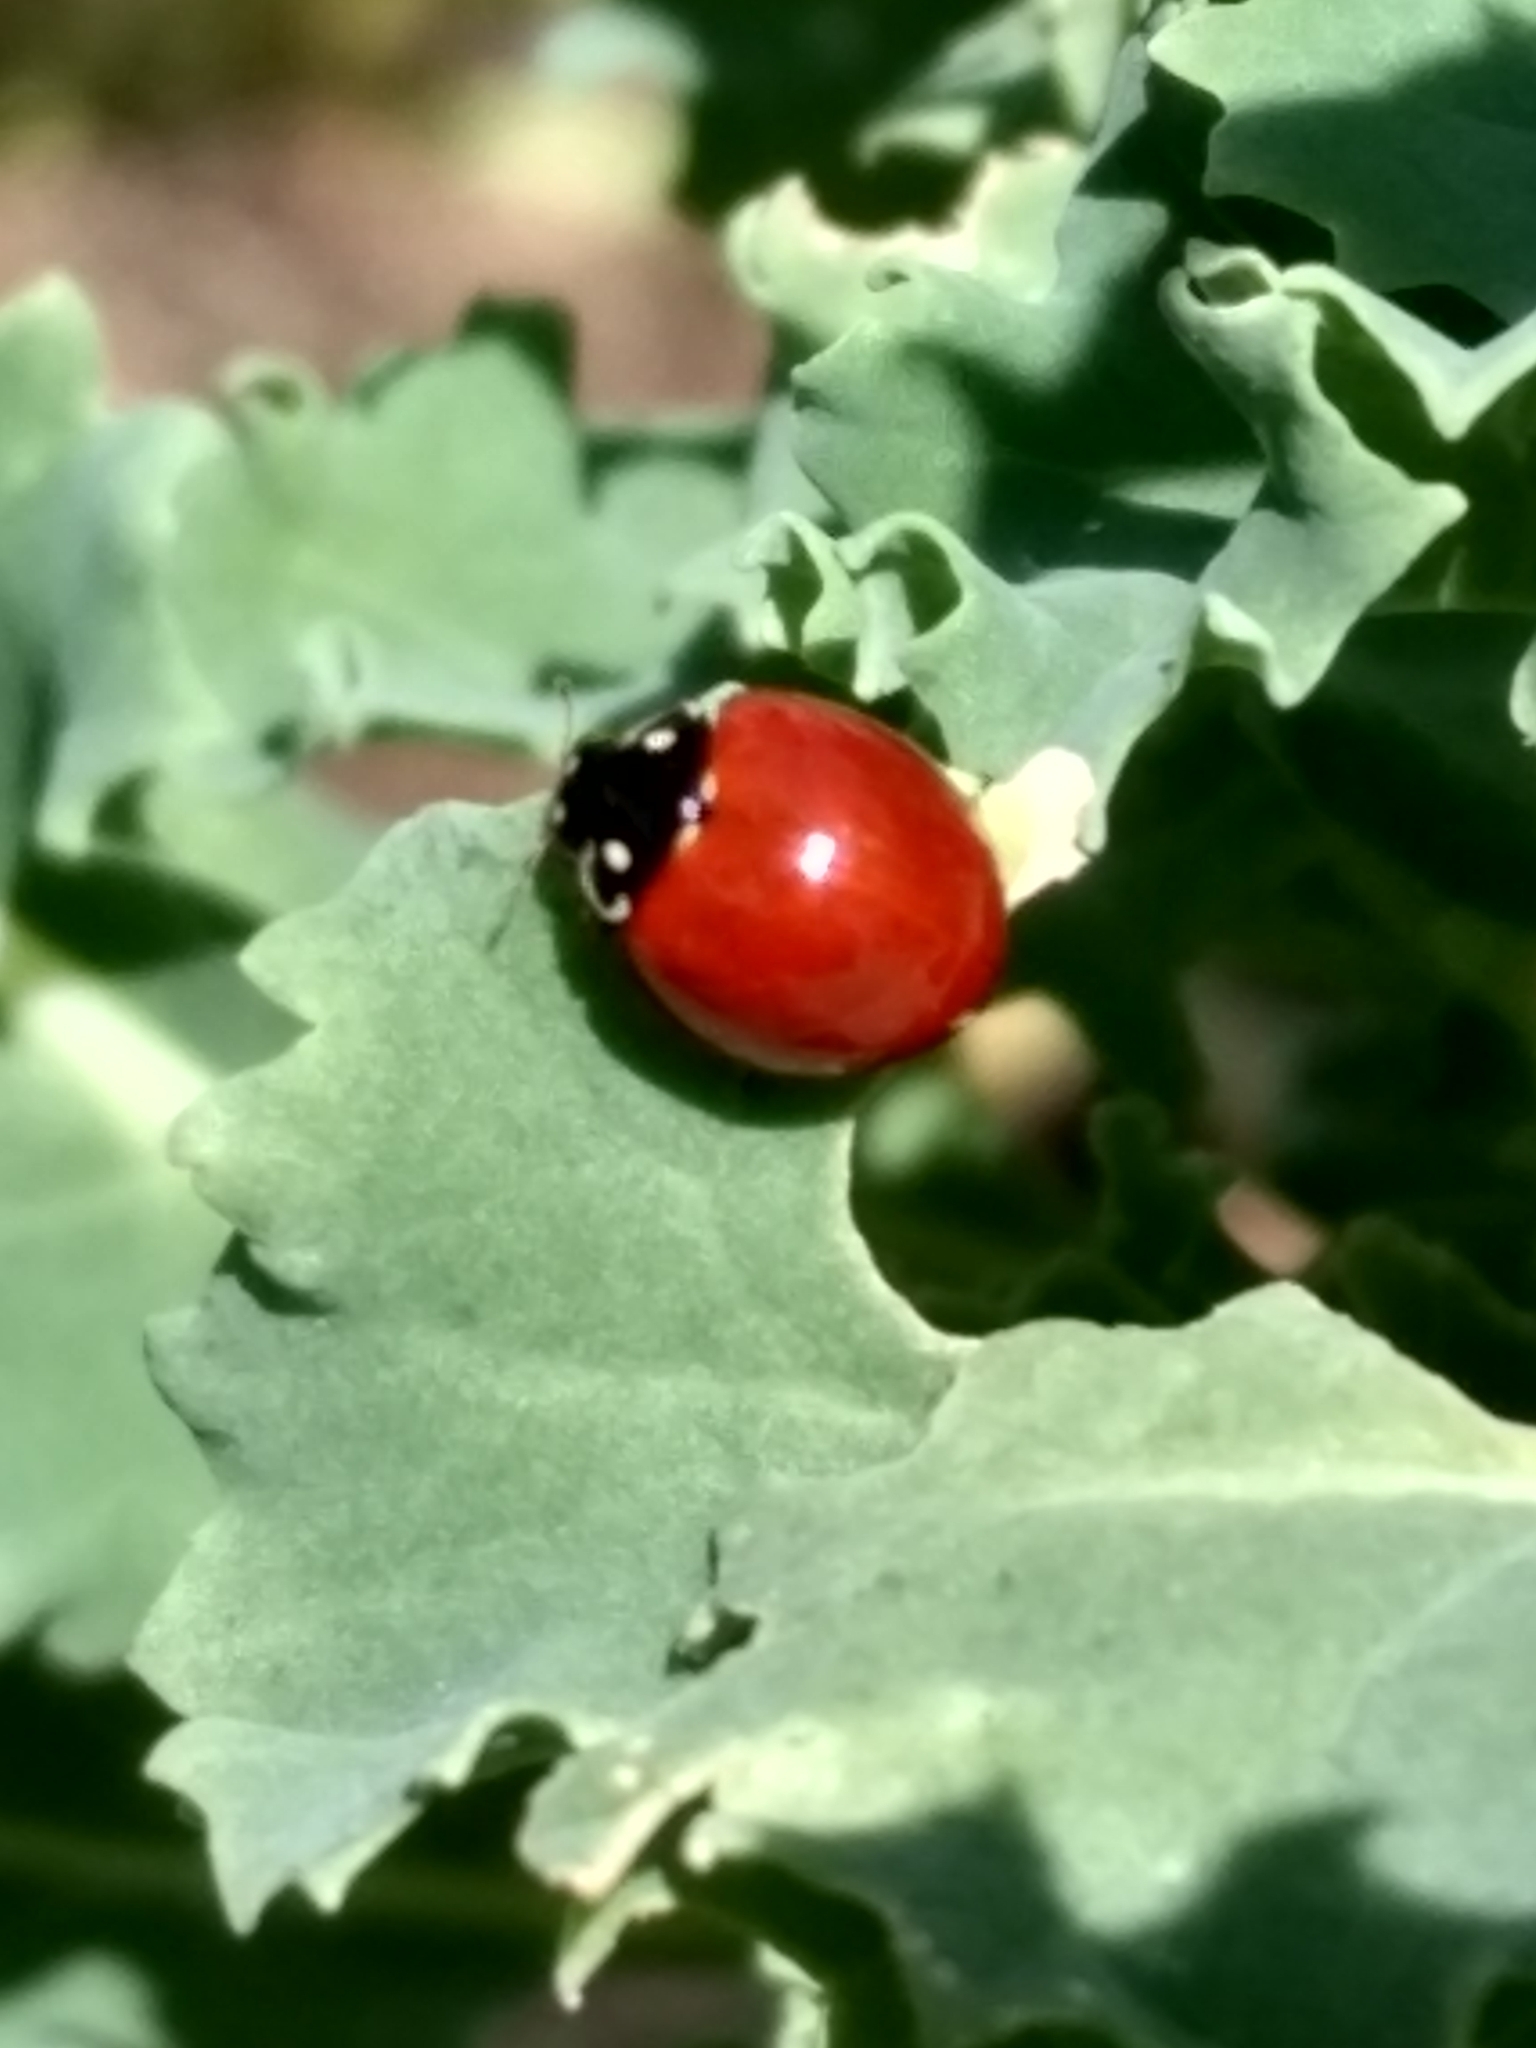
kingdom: Animalia
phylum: Arthropoda
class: Insecta
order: Coleoptera
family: Coccinellidae
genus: Cycloneda
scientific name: Cycloneda sanguinea
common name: Ladybird beetle
